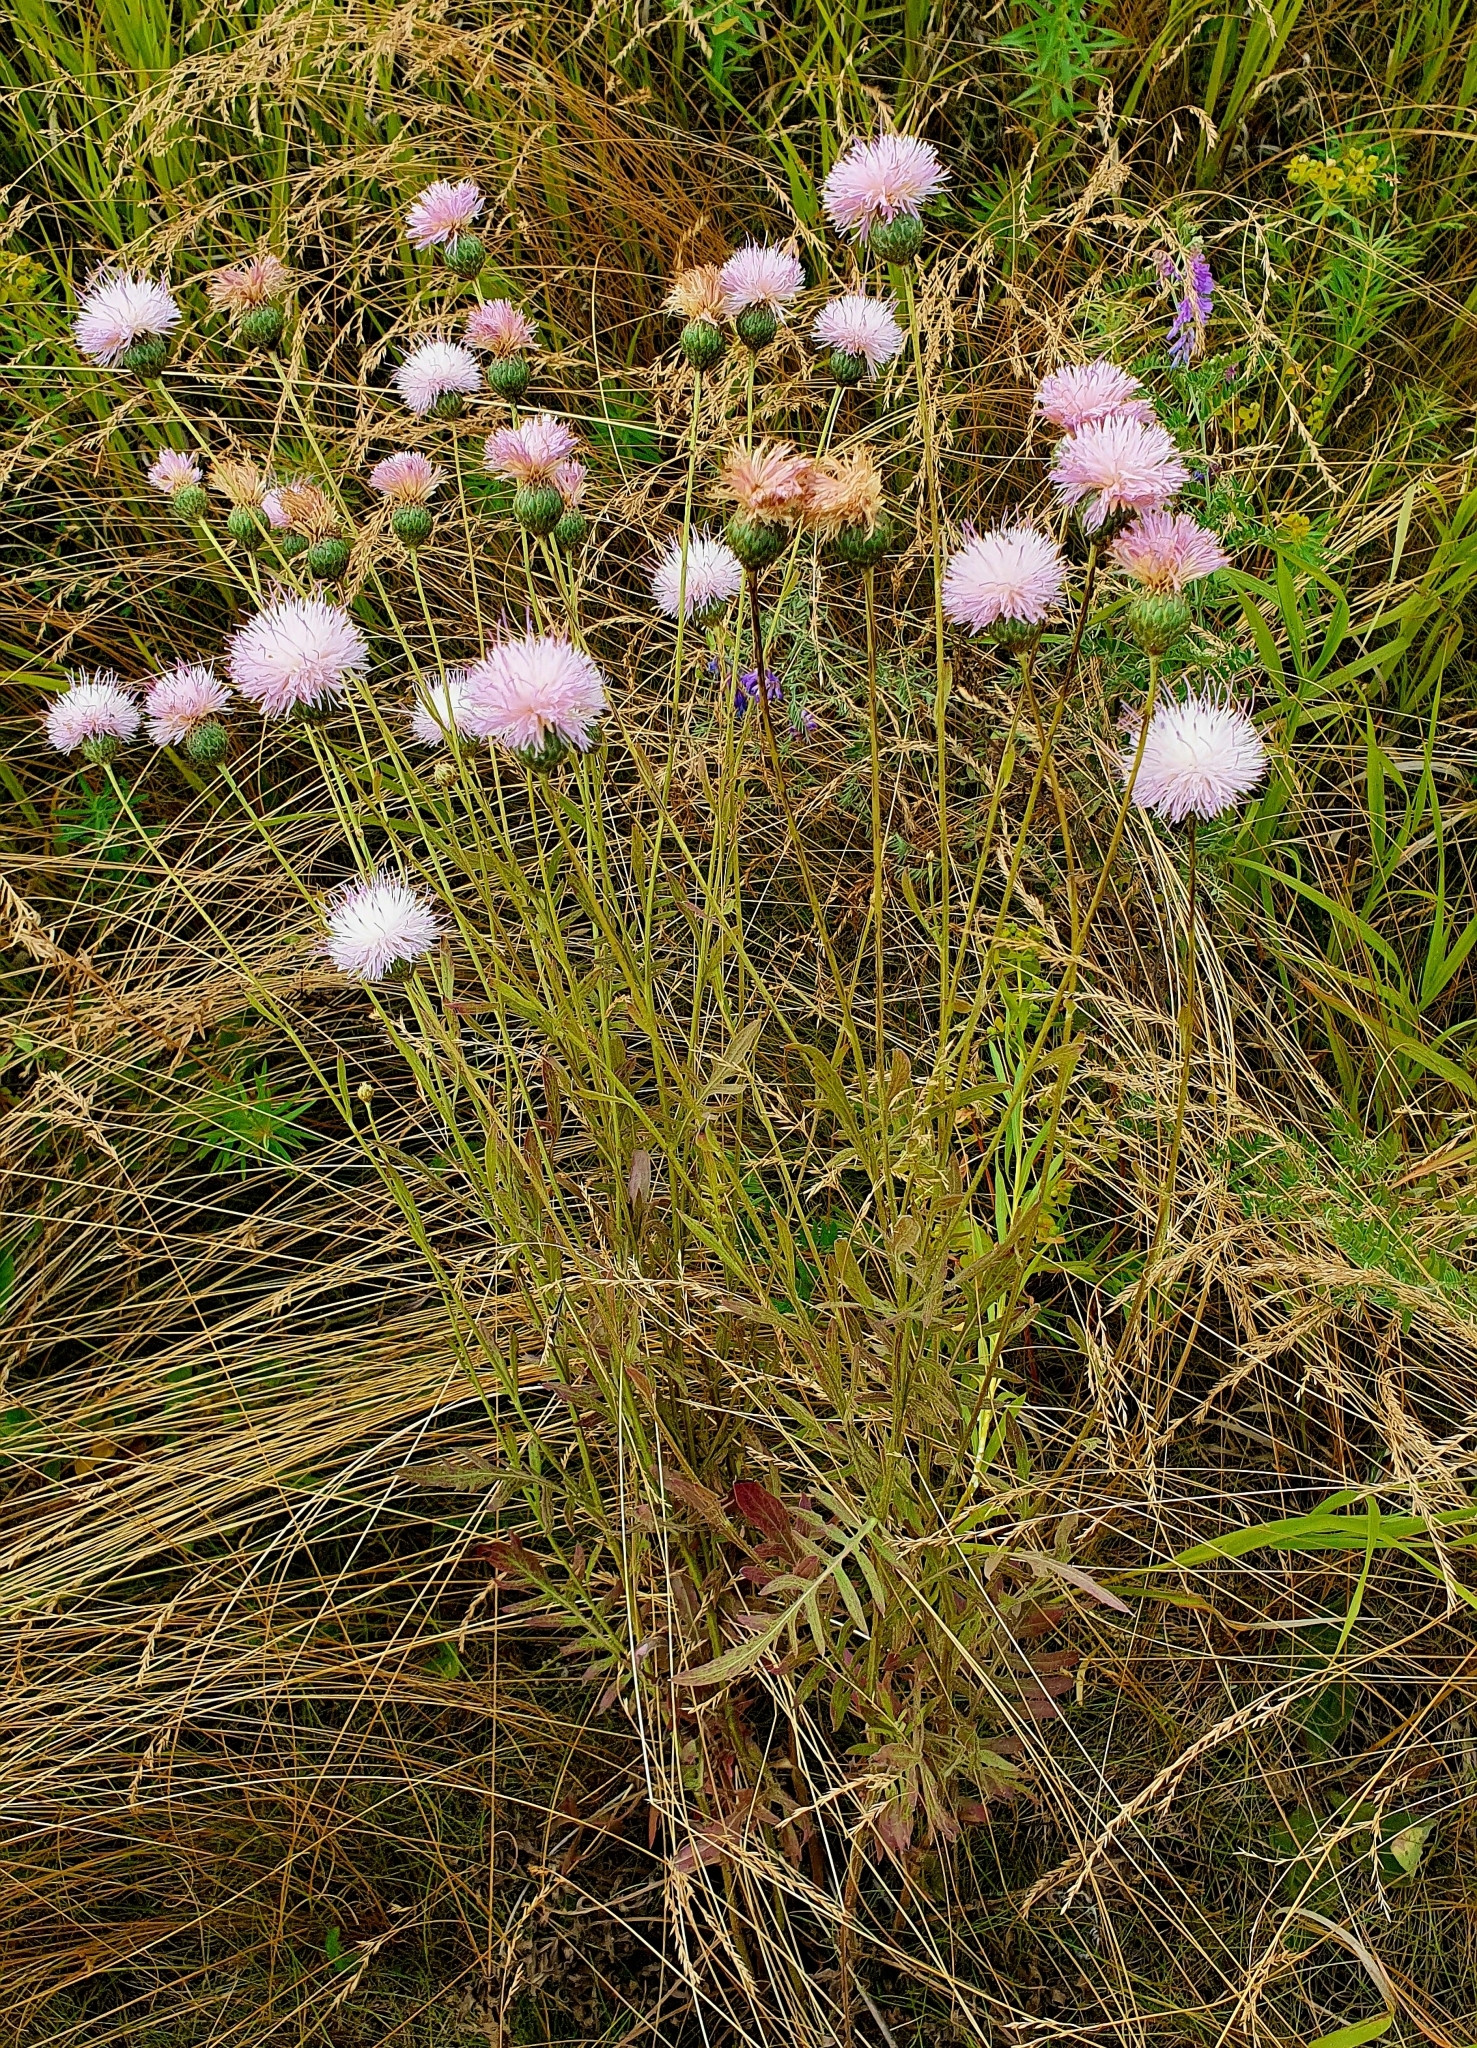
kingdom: Plantae
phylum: Tracheophyta
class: Magnoliopsida
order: Asterales
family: Asteraceae
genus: Klasea
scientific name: Klasea radiata
